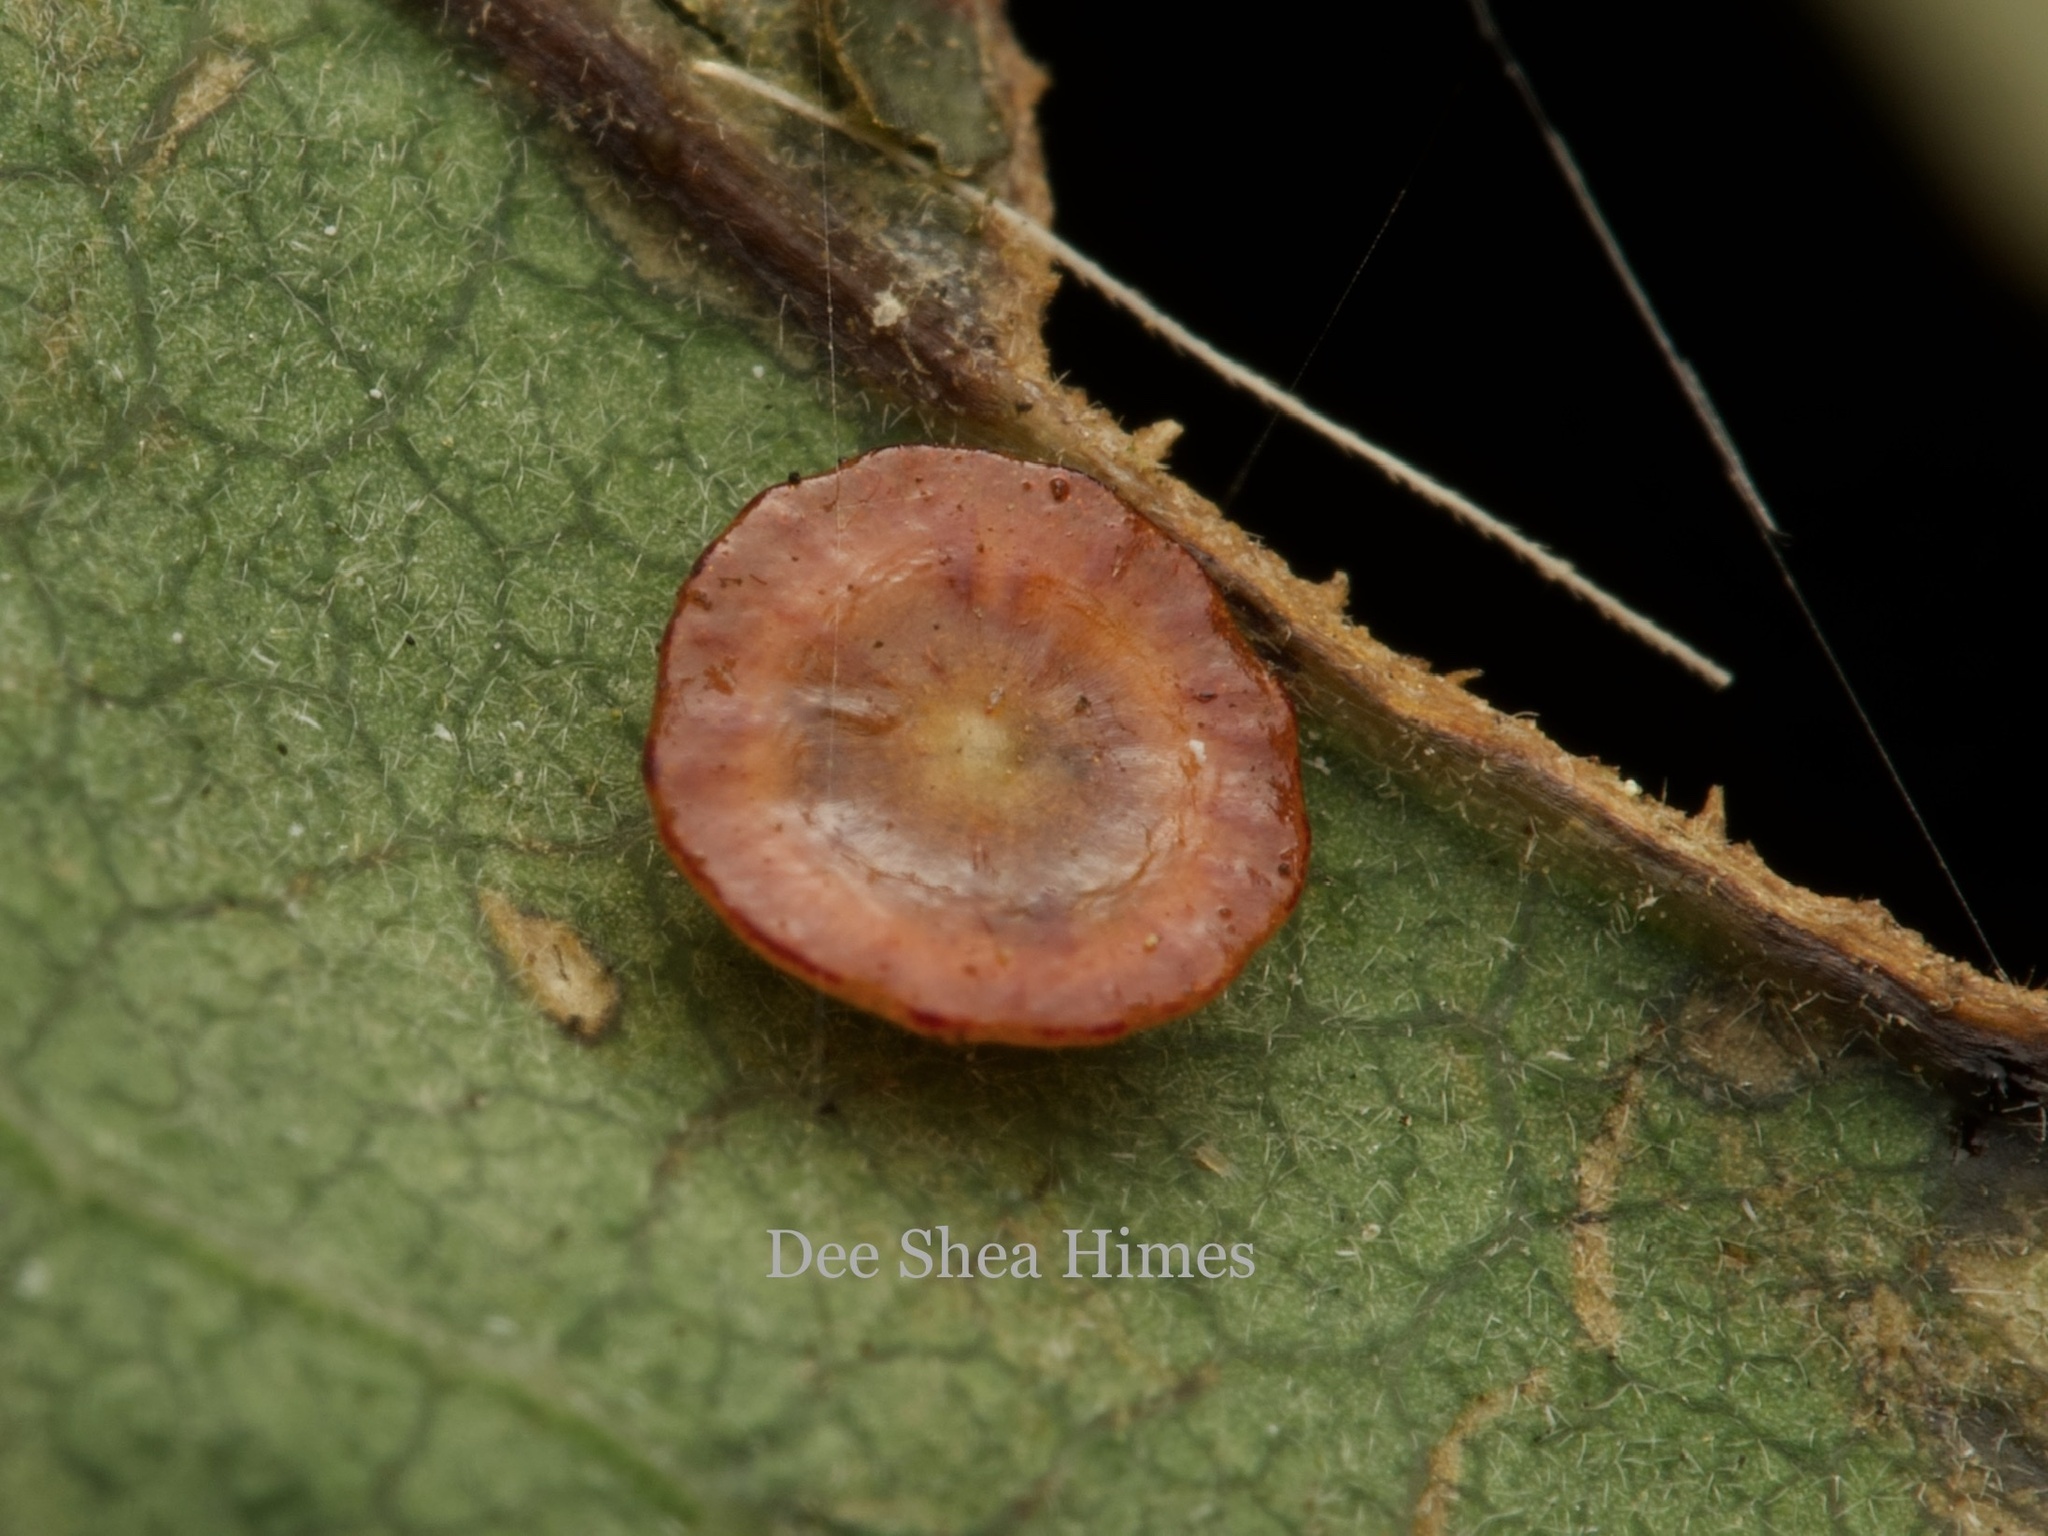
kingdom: Animalia
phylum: Arthropoda
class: Insecta
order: Hymenoptera
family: Cynipidae
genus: Andricus
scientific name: Andricus
